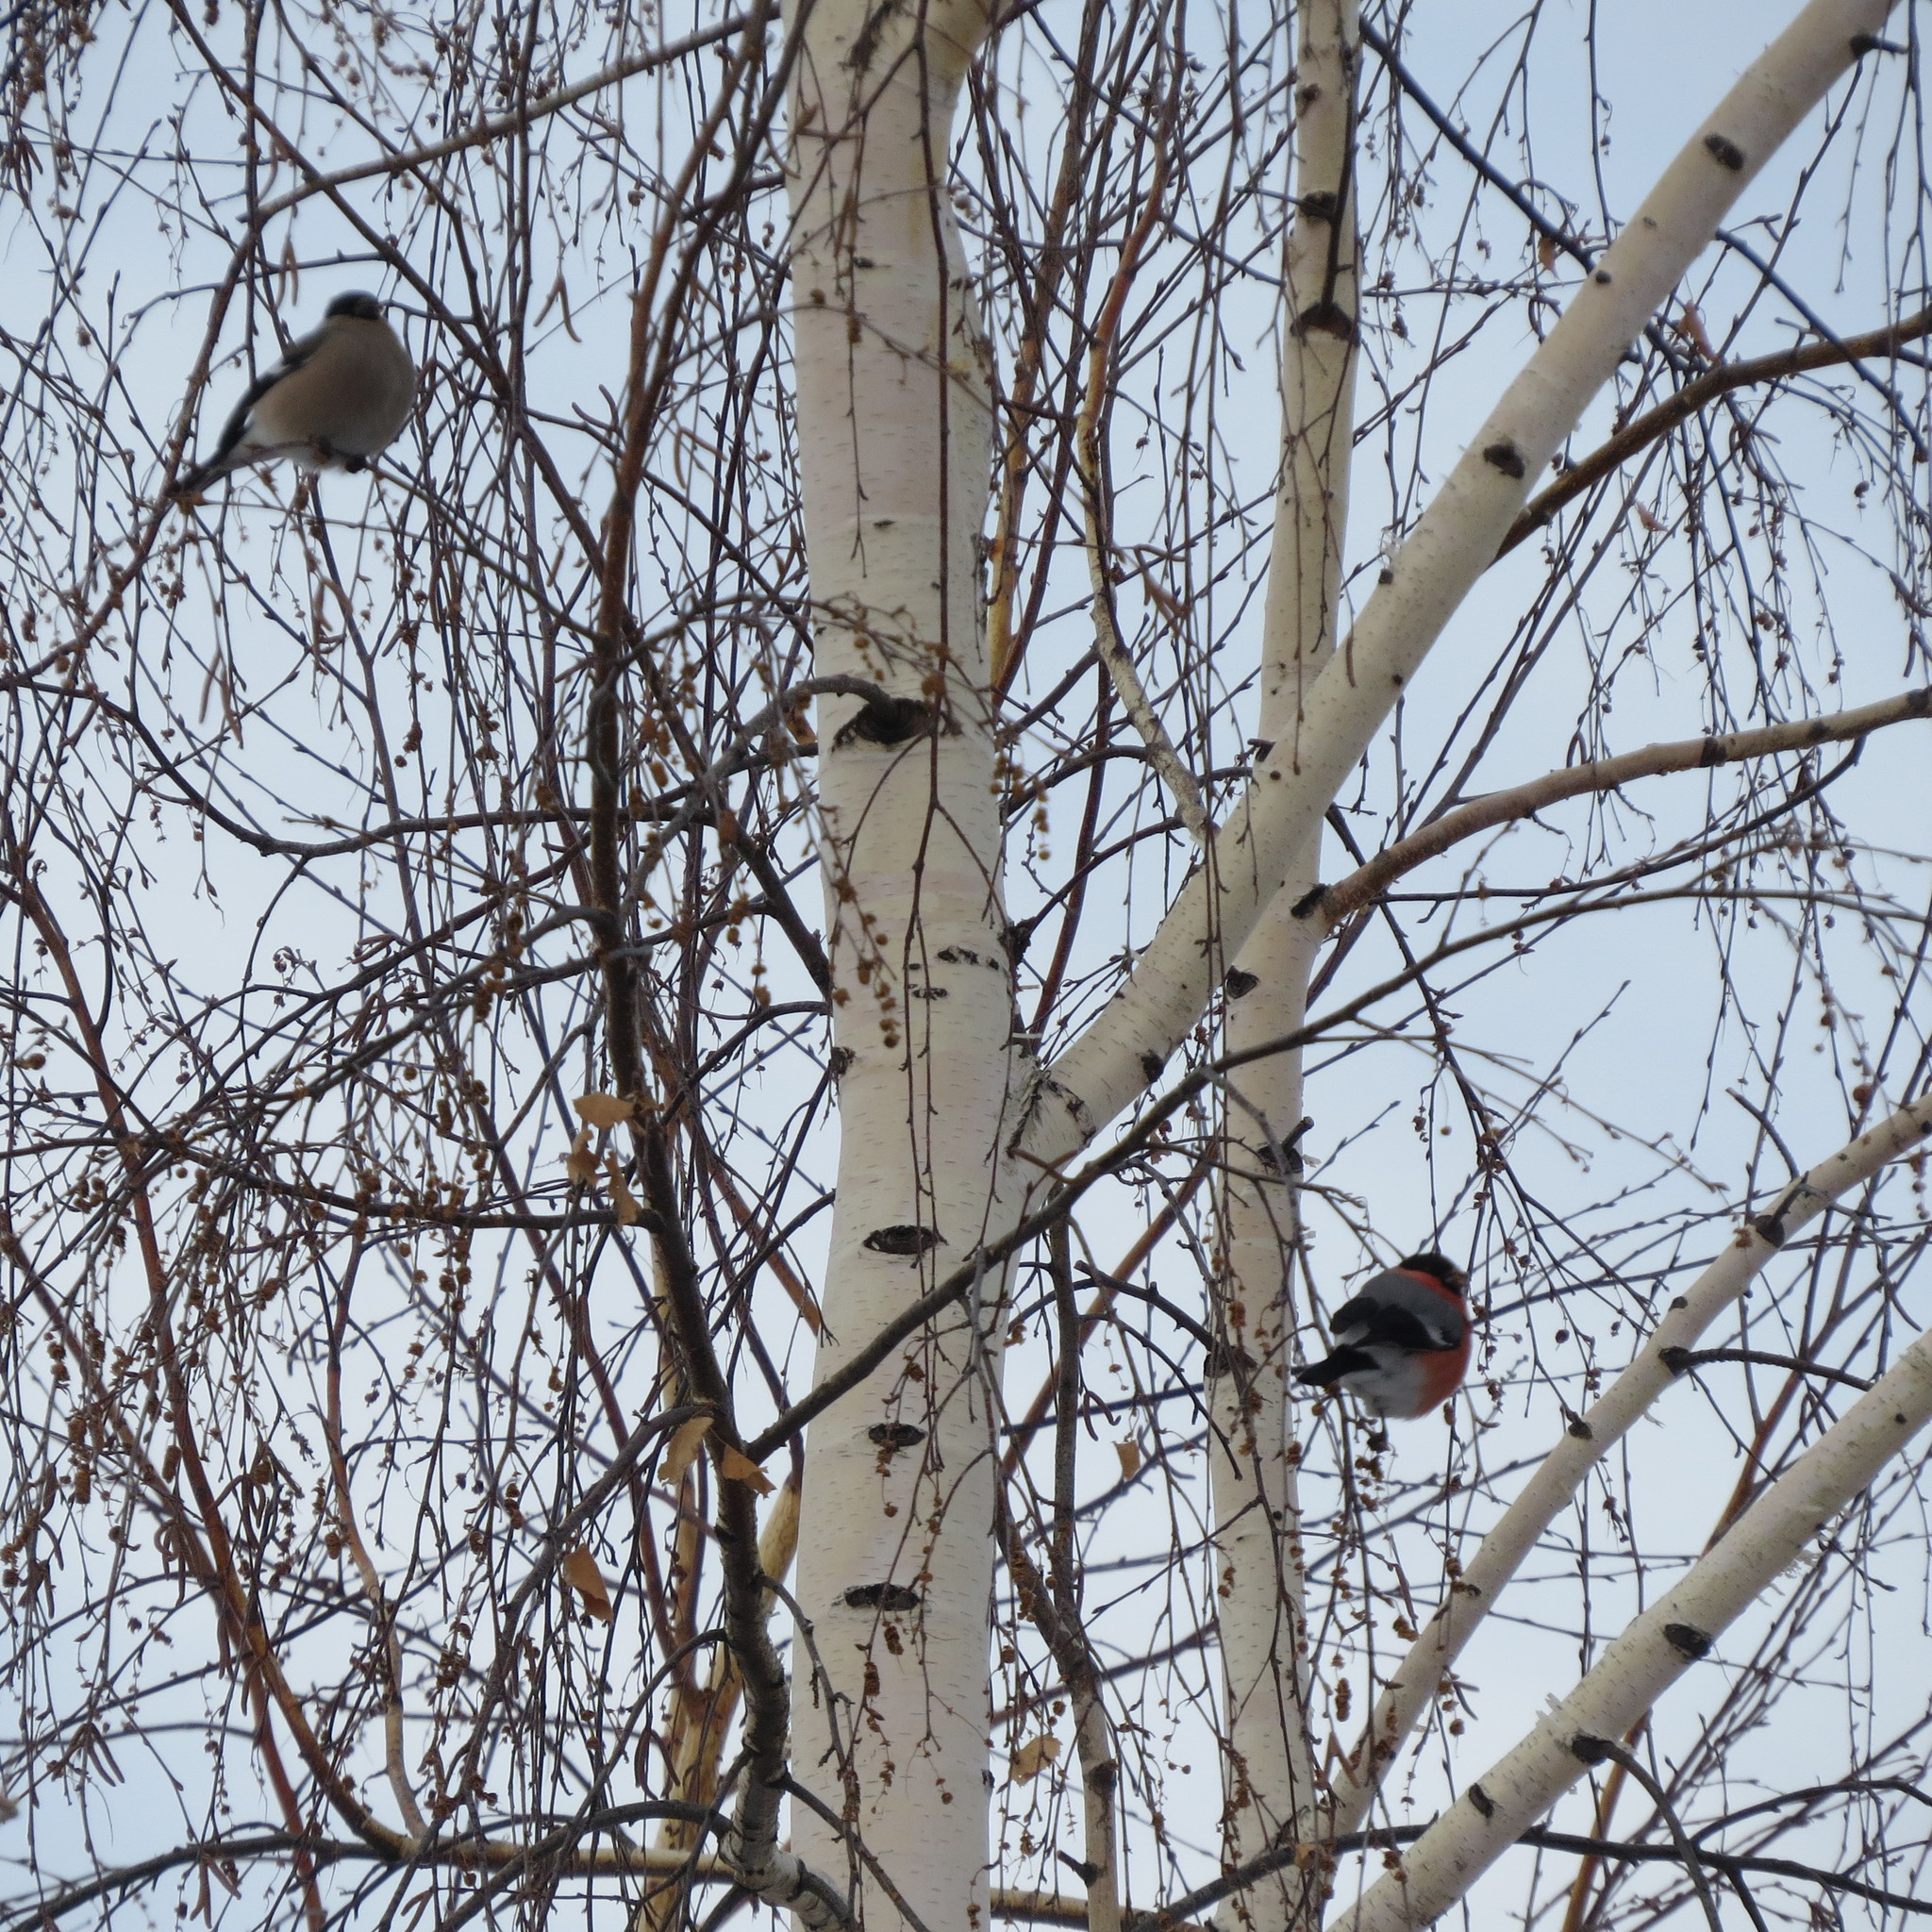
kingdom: Animalia
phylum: Chordata
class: Aves
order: Passeriformes
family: Fringillidae
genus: Pyrrhula
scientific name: Pyrrhula pyrrhula
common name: Eurasian bullfinch
